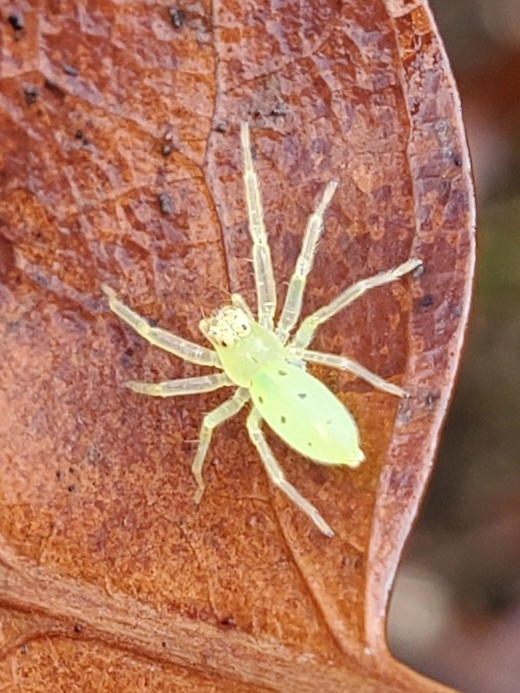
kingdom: Animalia
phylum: Arthropoda
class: Arachnida
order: Araneae
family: Salticidae
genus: Lyssomanes
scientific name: Lyssomanes viridis
